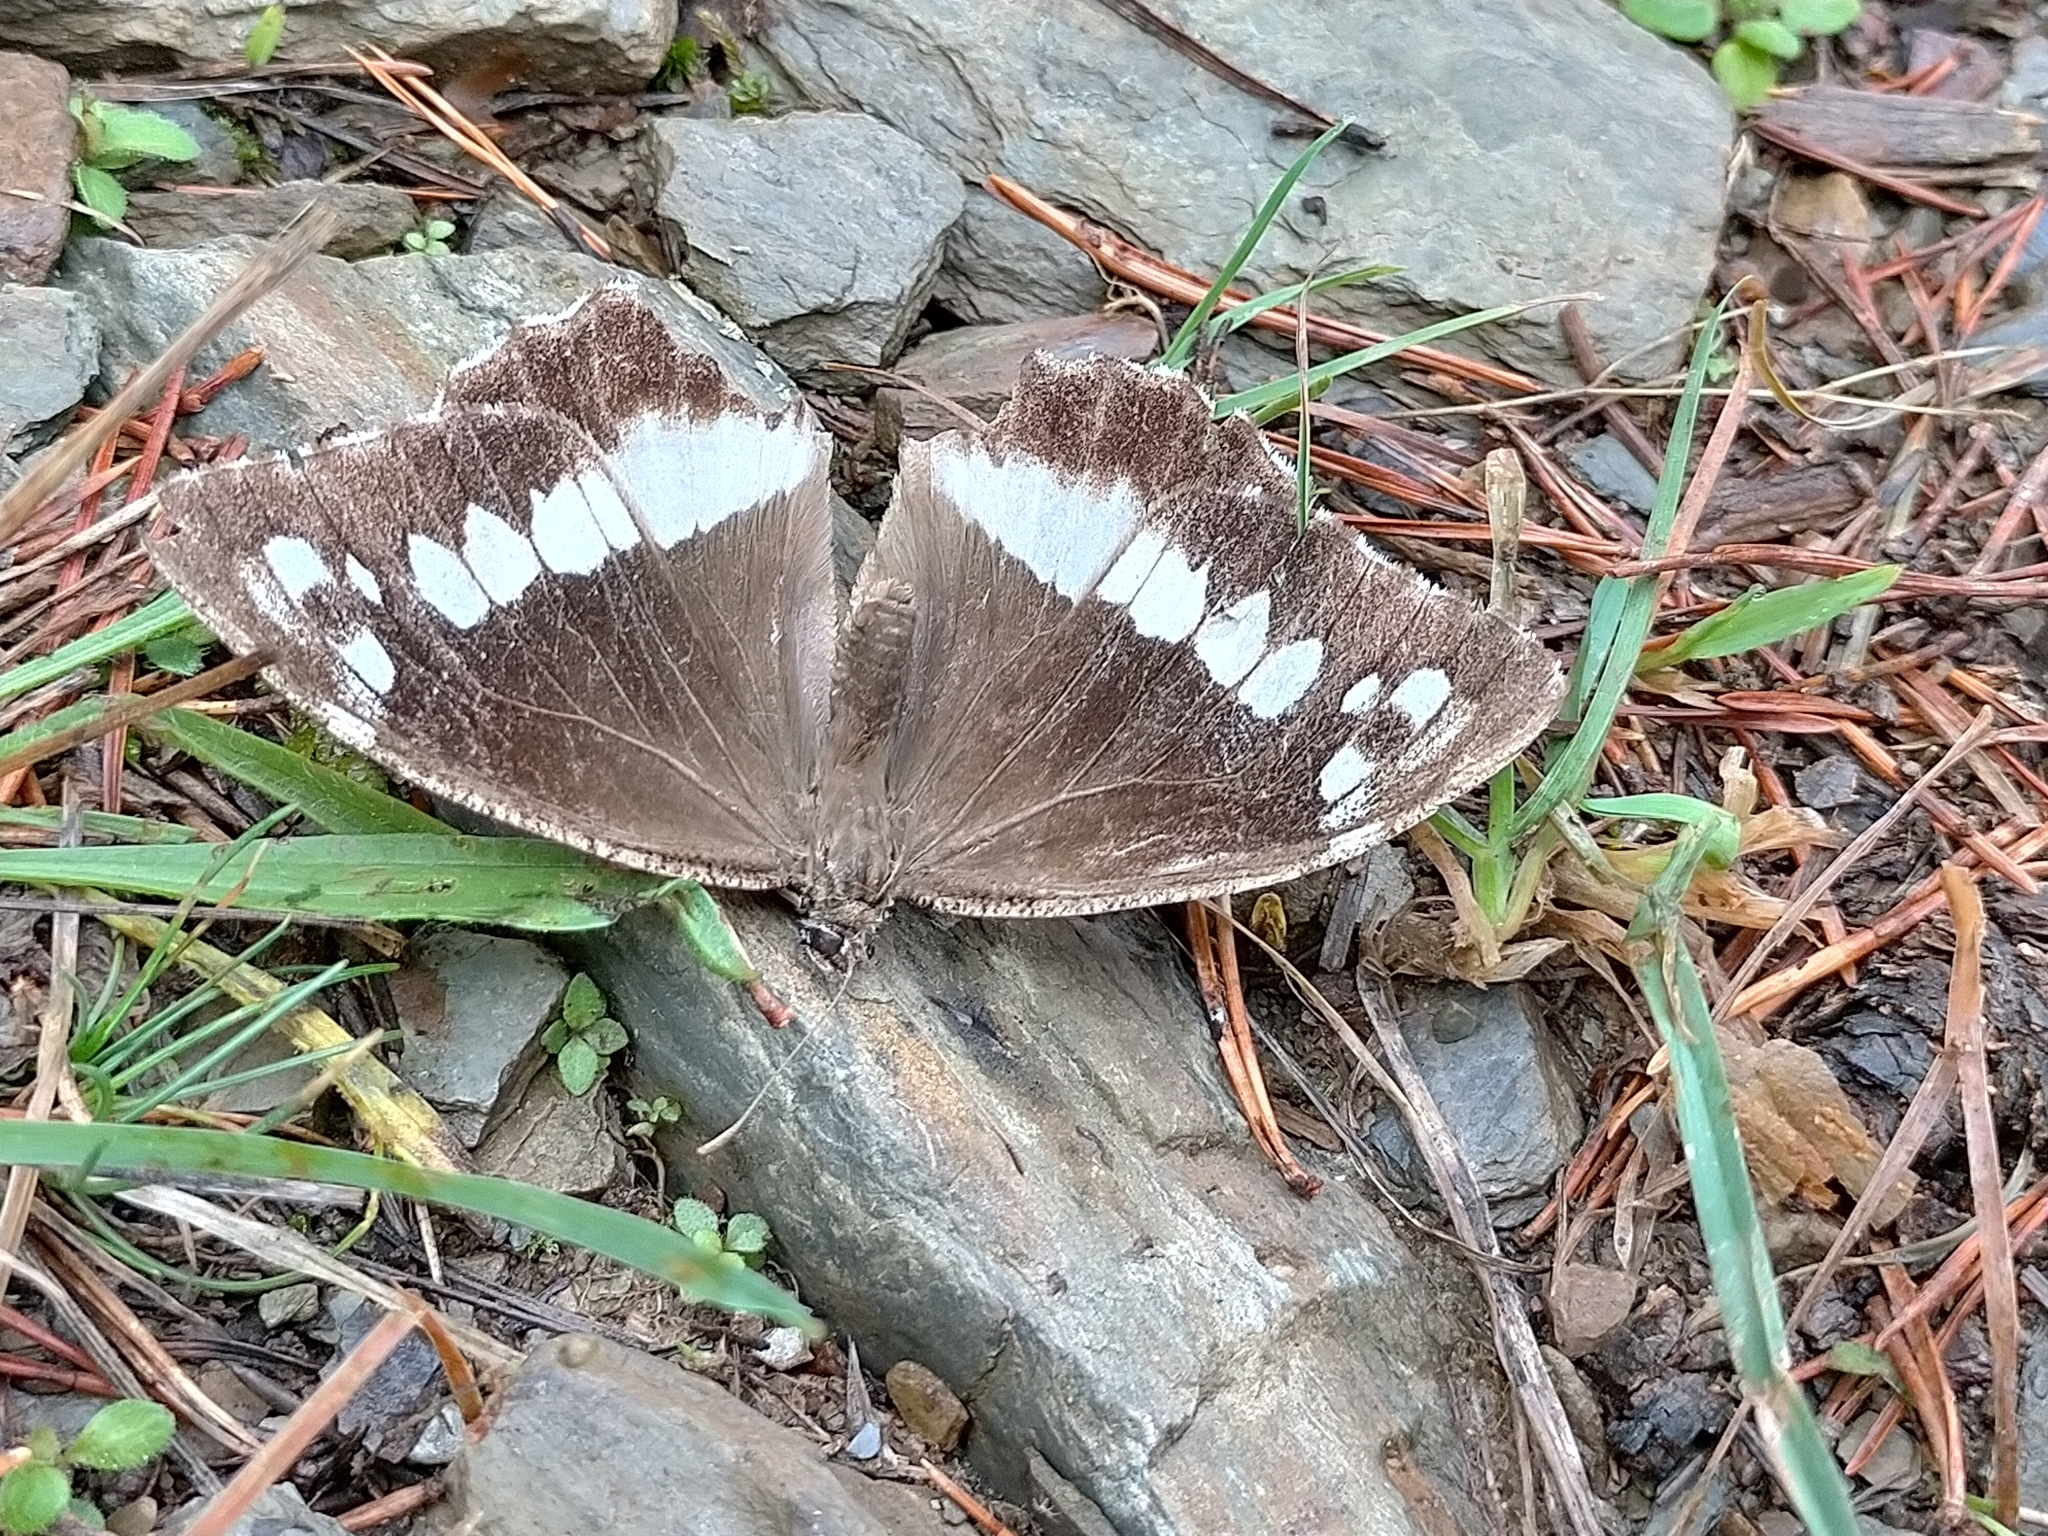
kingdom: Animalia
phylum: Arthropoda
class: Insecta
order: Lepidoptera
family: Lycaenidae
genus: Loweia
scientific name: Loweia tityrus
